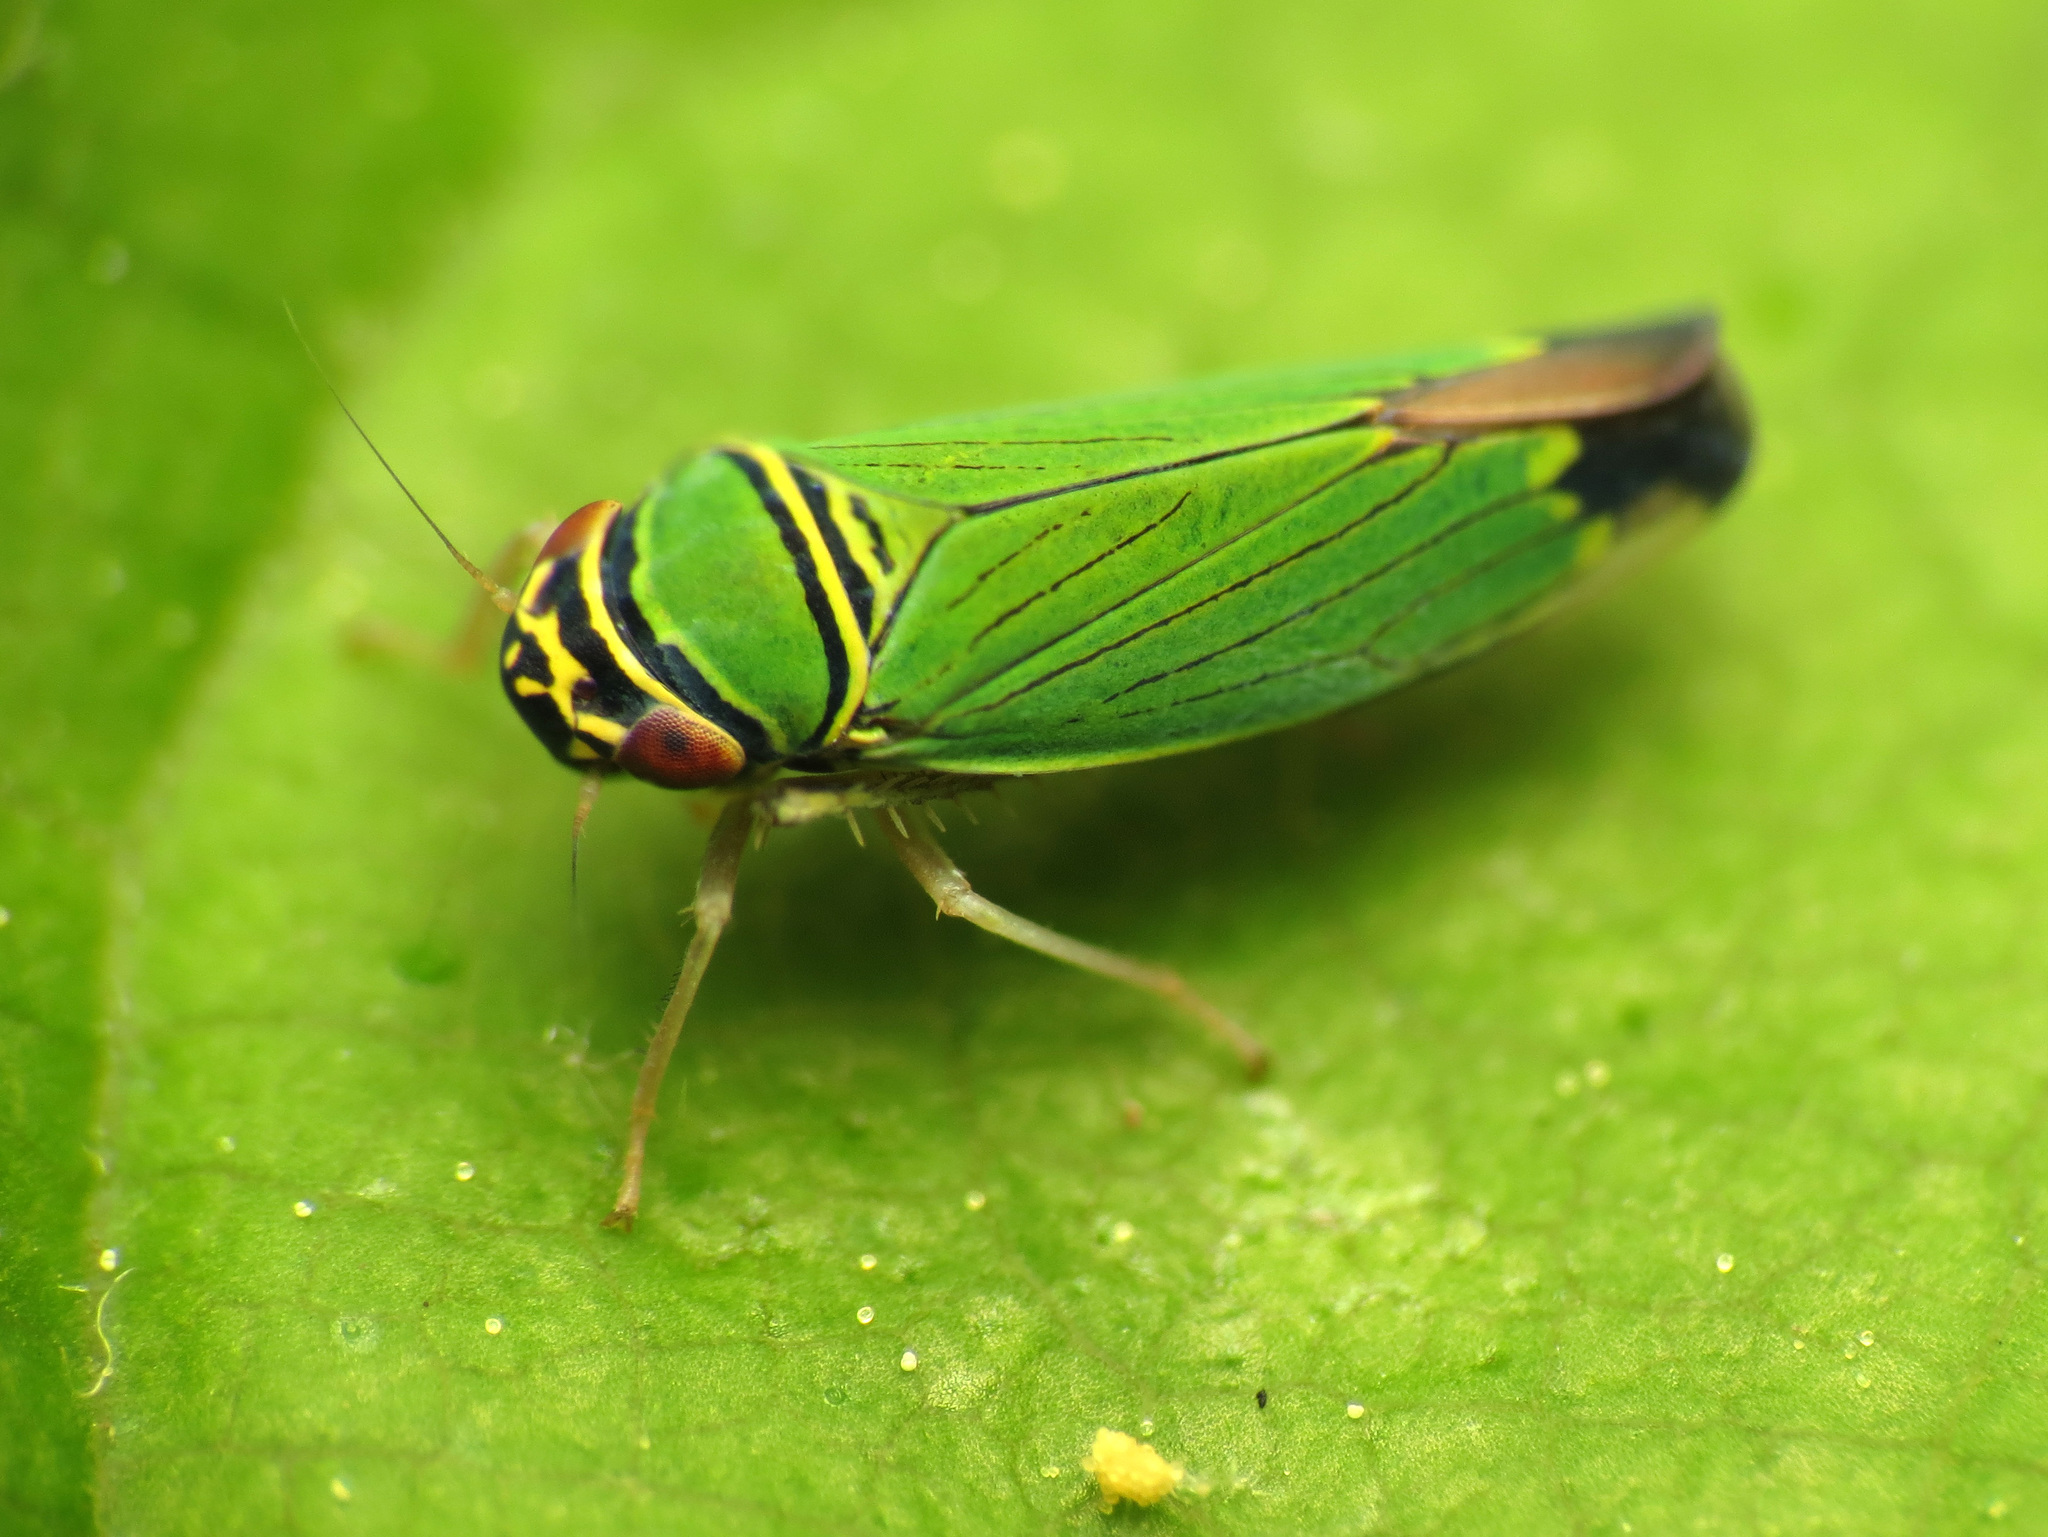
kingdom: Animalia
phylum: Arthropoda
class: Insecta
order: Hemiptera
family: Cicadellidae
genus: Tylozygus
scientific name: Tylozygus geometricus
